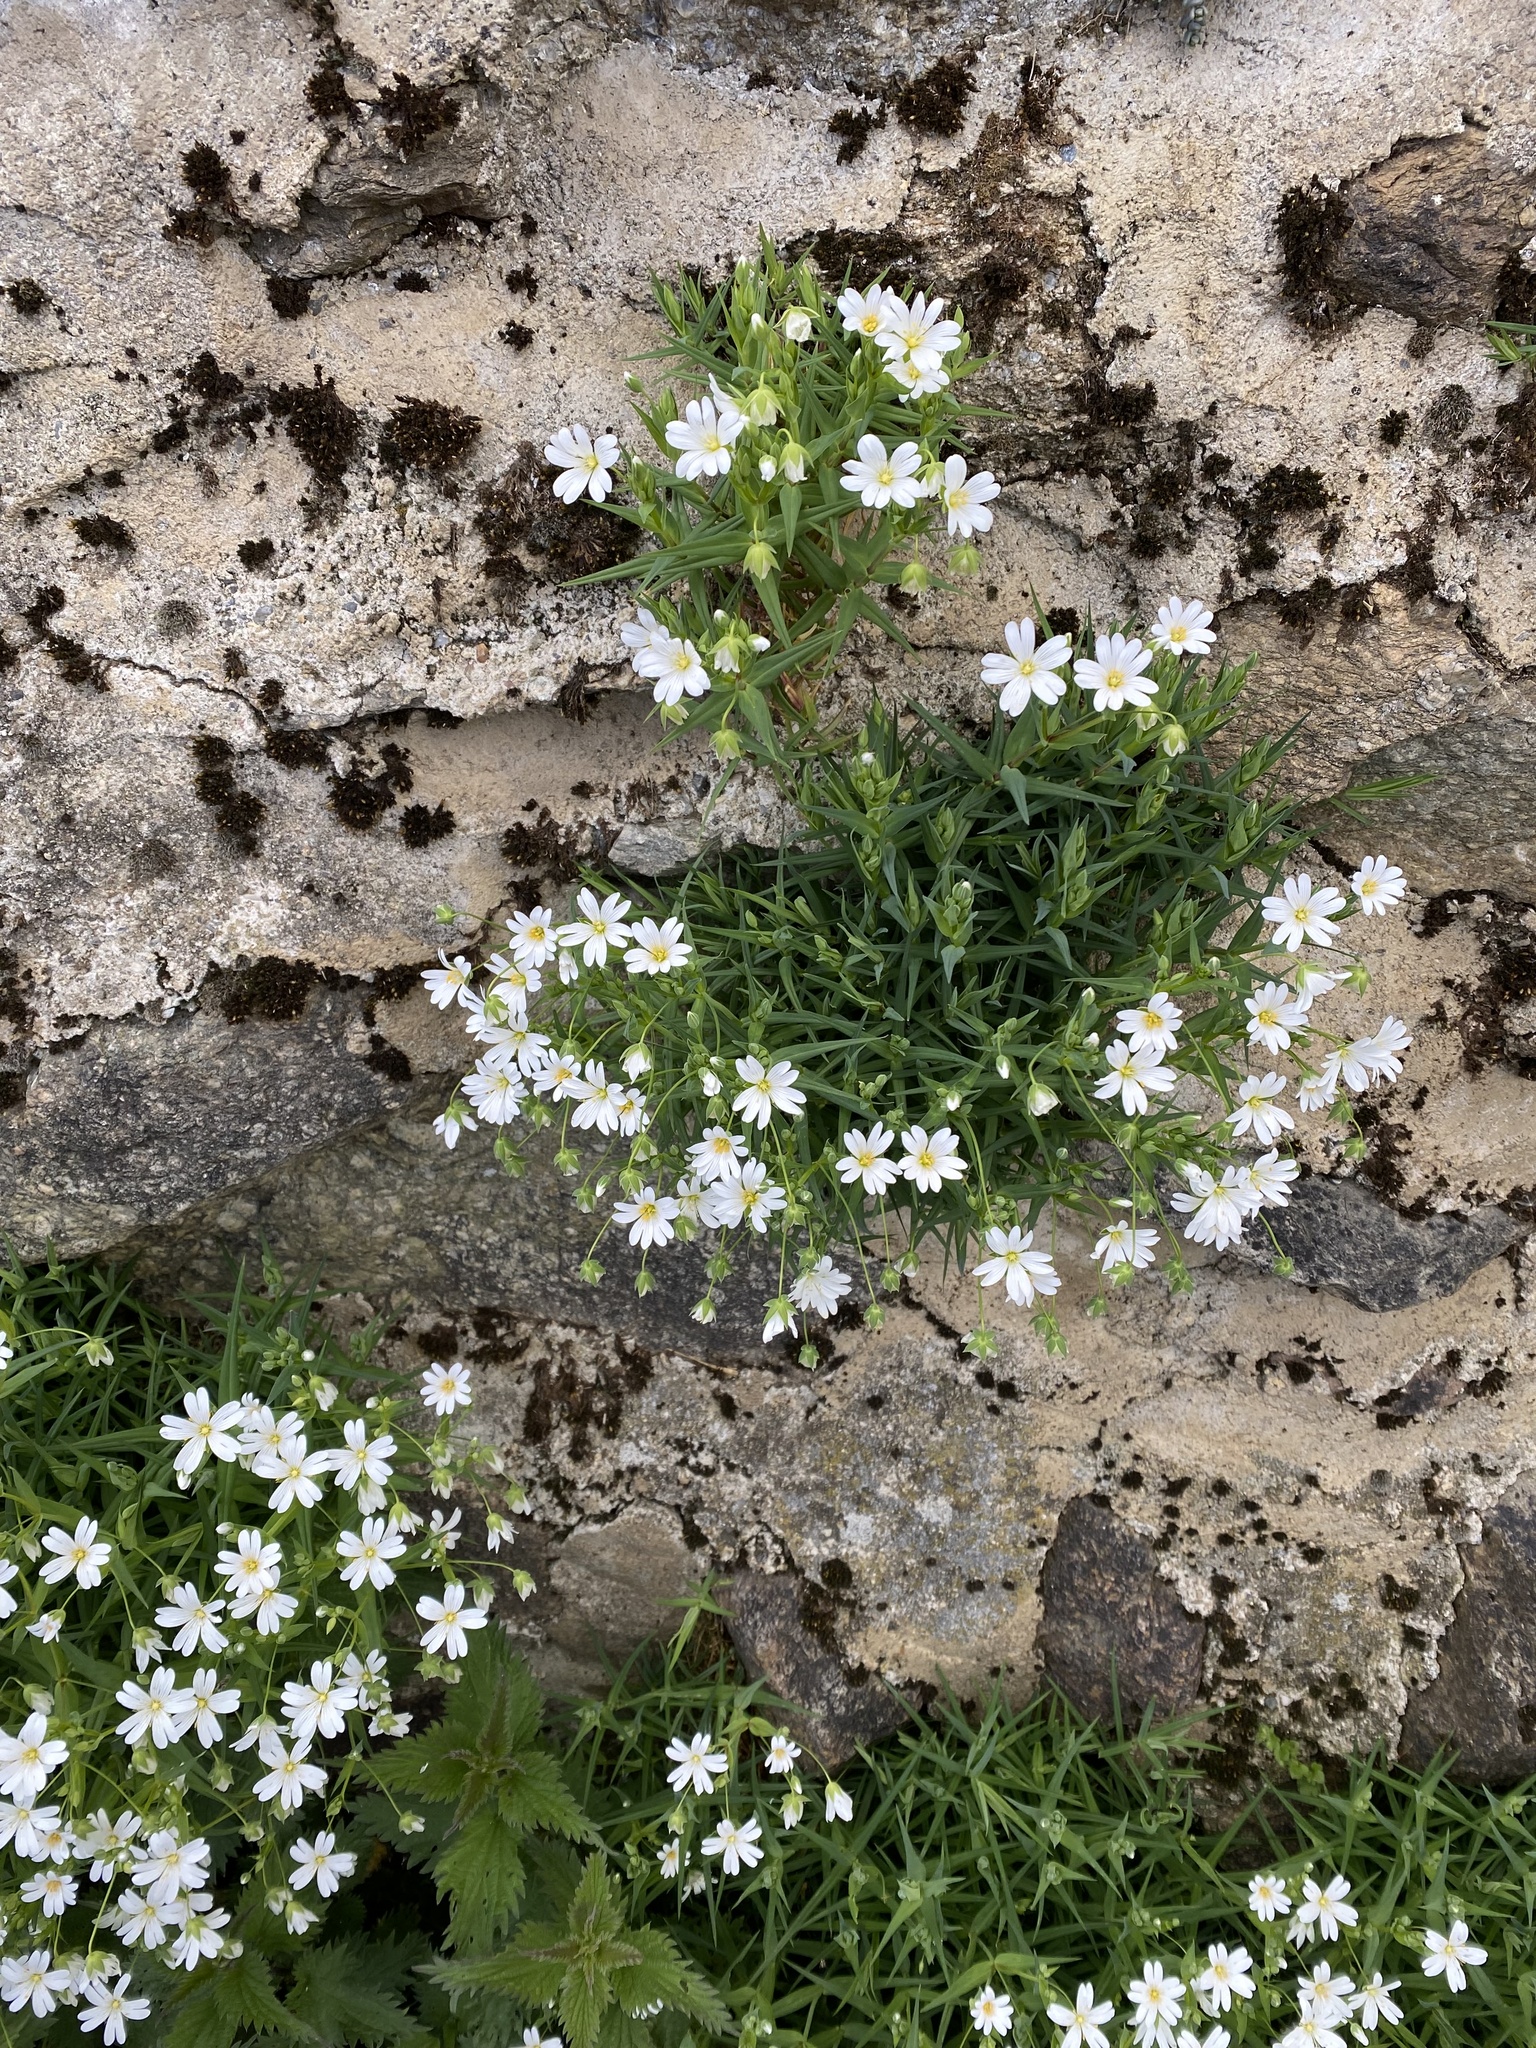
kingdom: Plantae
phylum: Tracheophyta
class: Magnoliopsida
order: Caryophyllales
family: Caryophyllaceae
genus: Rabelera
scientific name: Rabelera holostea
